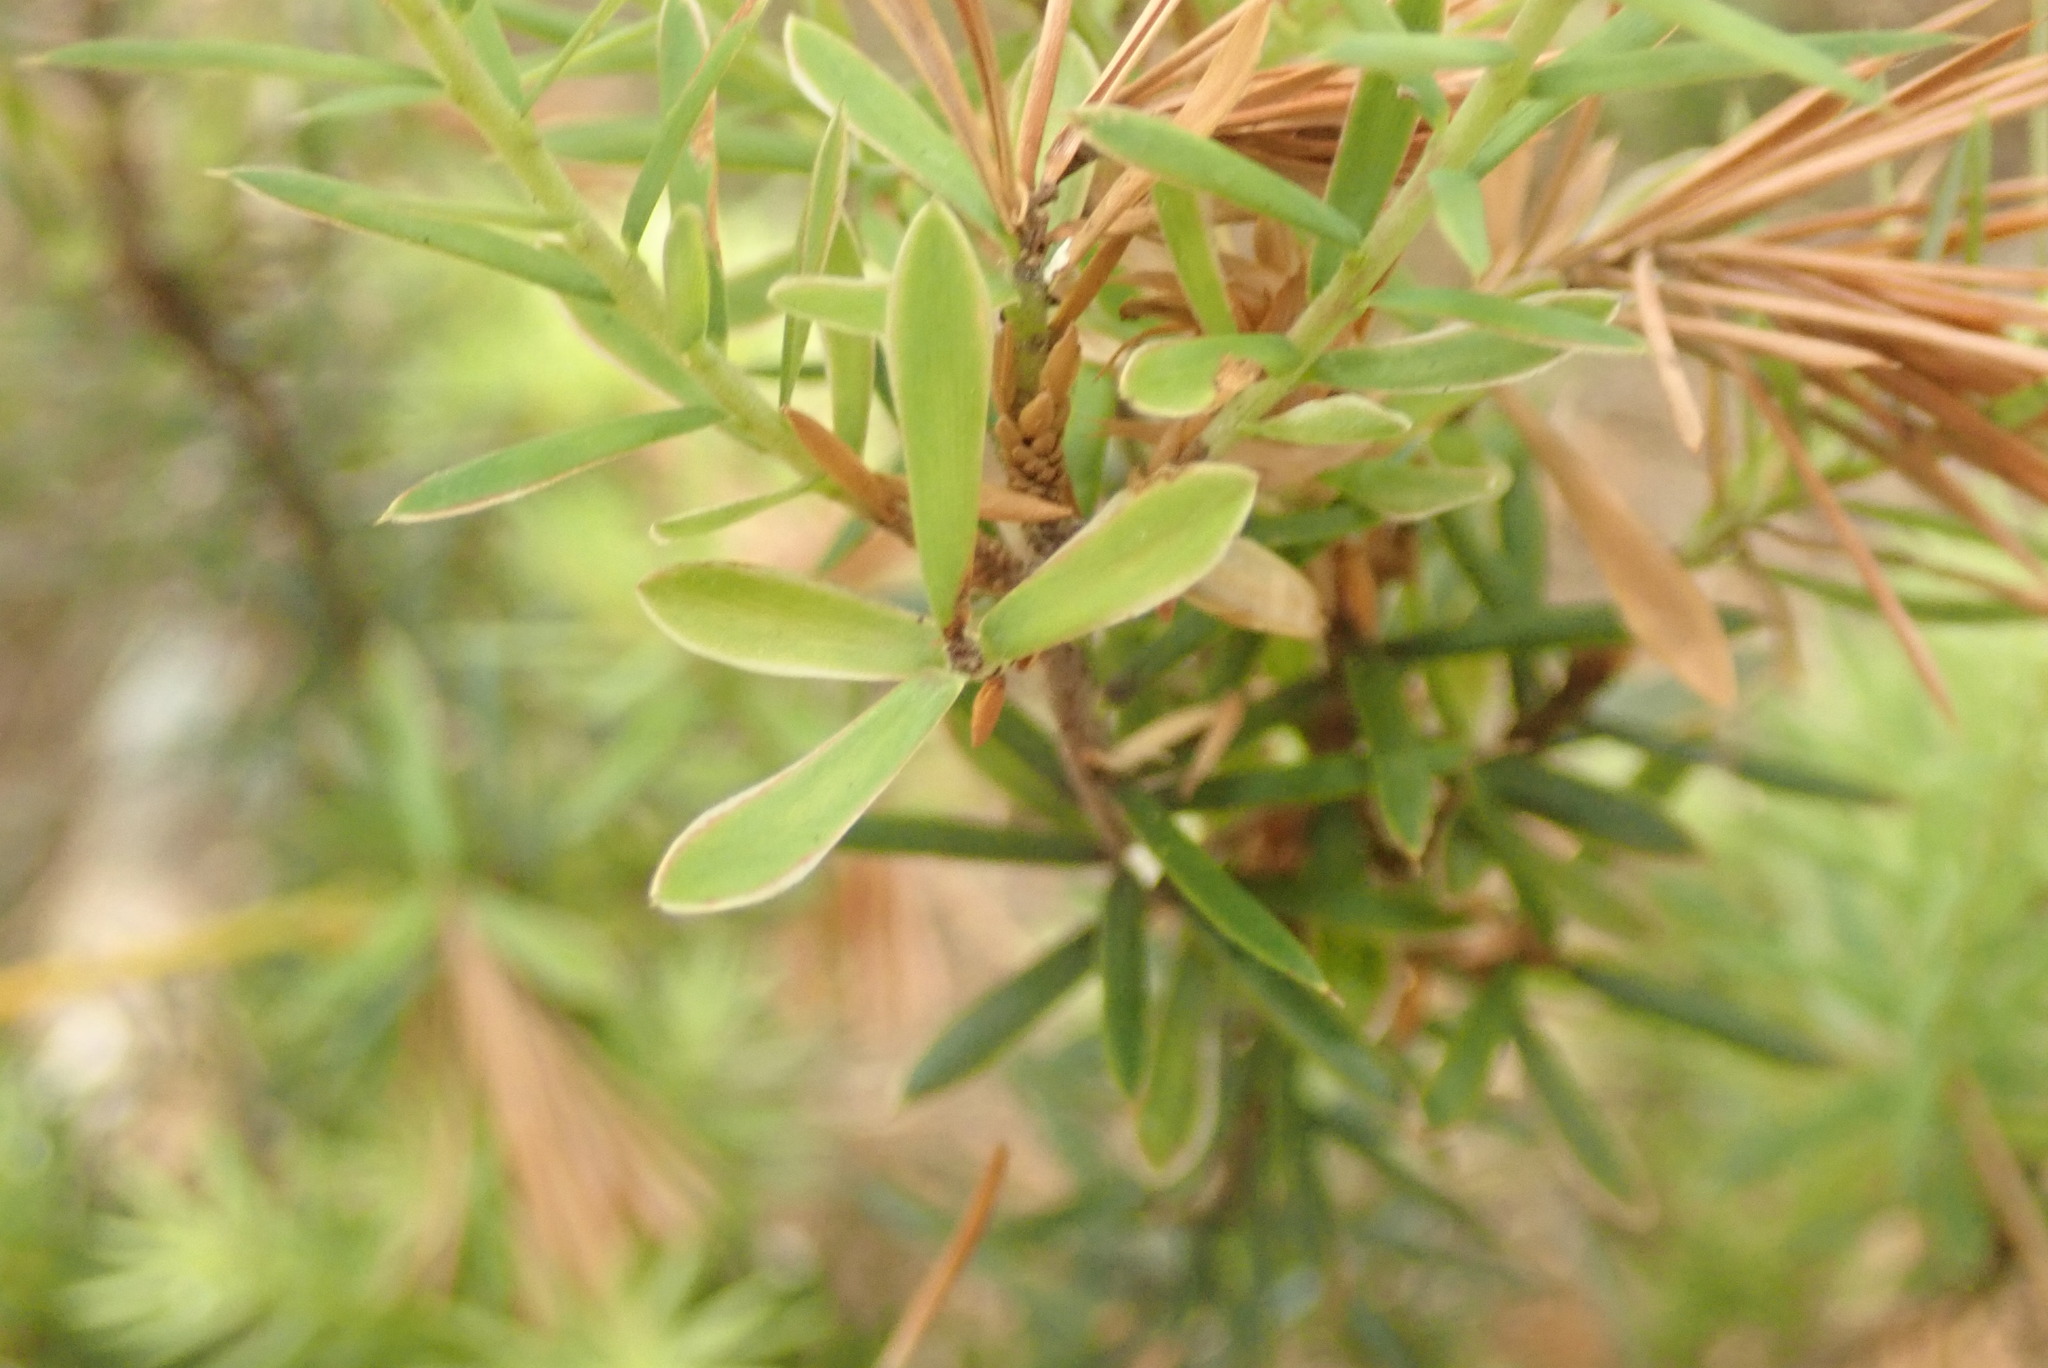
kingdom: Plantae
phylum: Tracheophyta
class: Magnoliopsida
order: Ericales
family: Ericaceae
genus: Leptecophylla
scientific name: Leptecophylla juniperina
